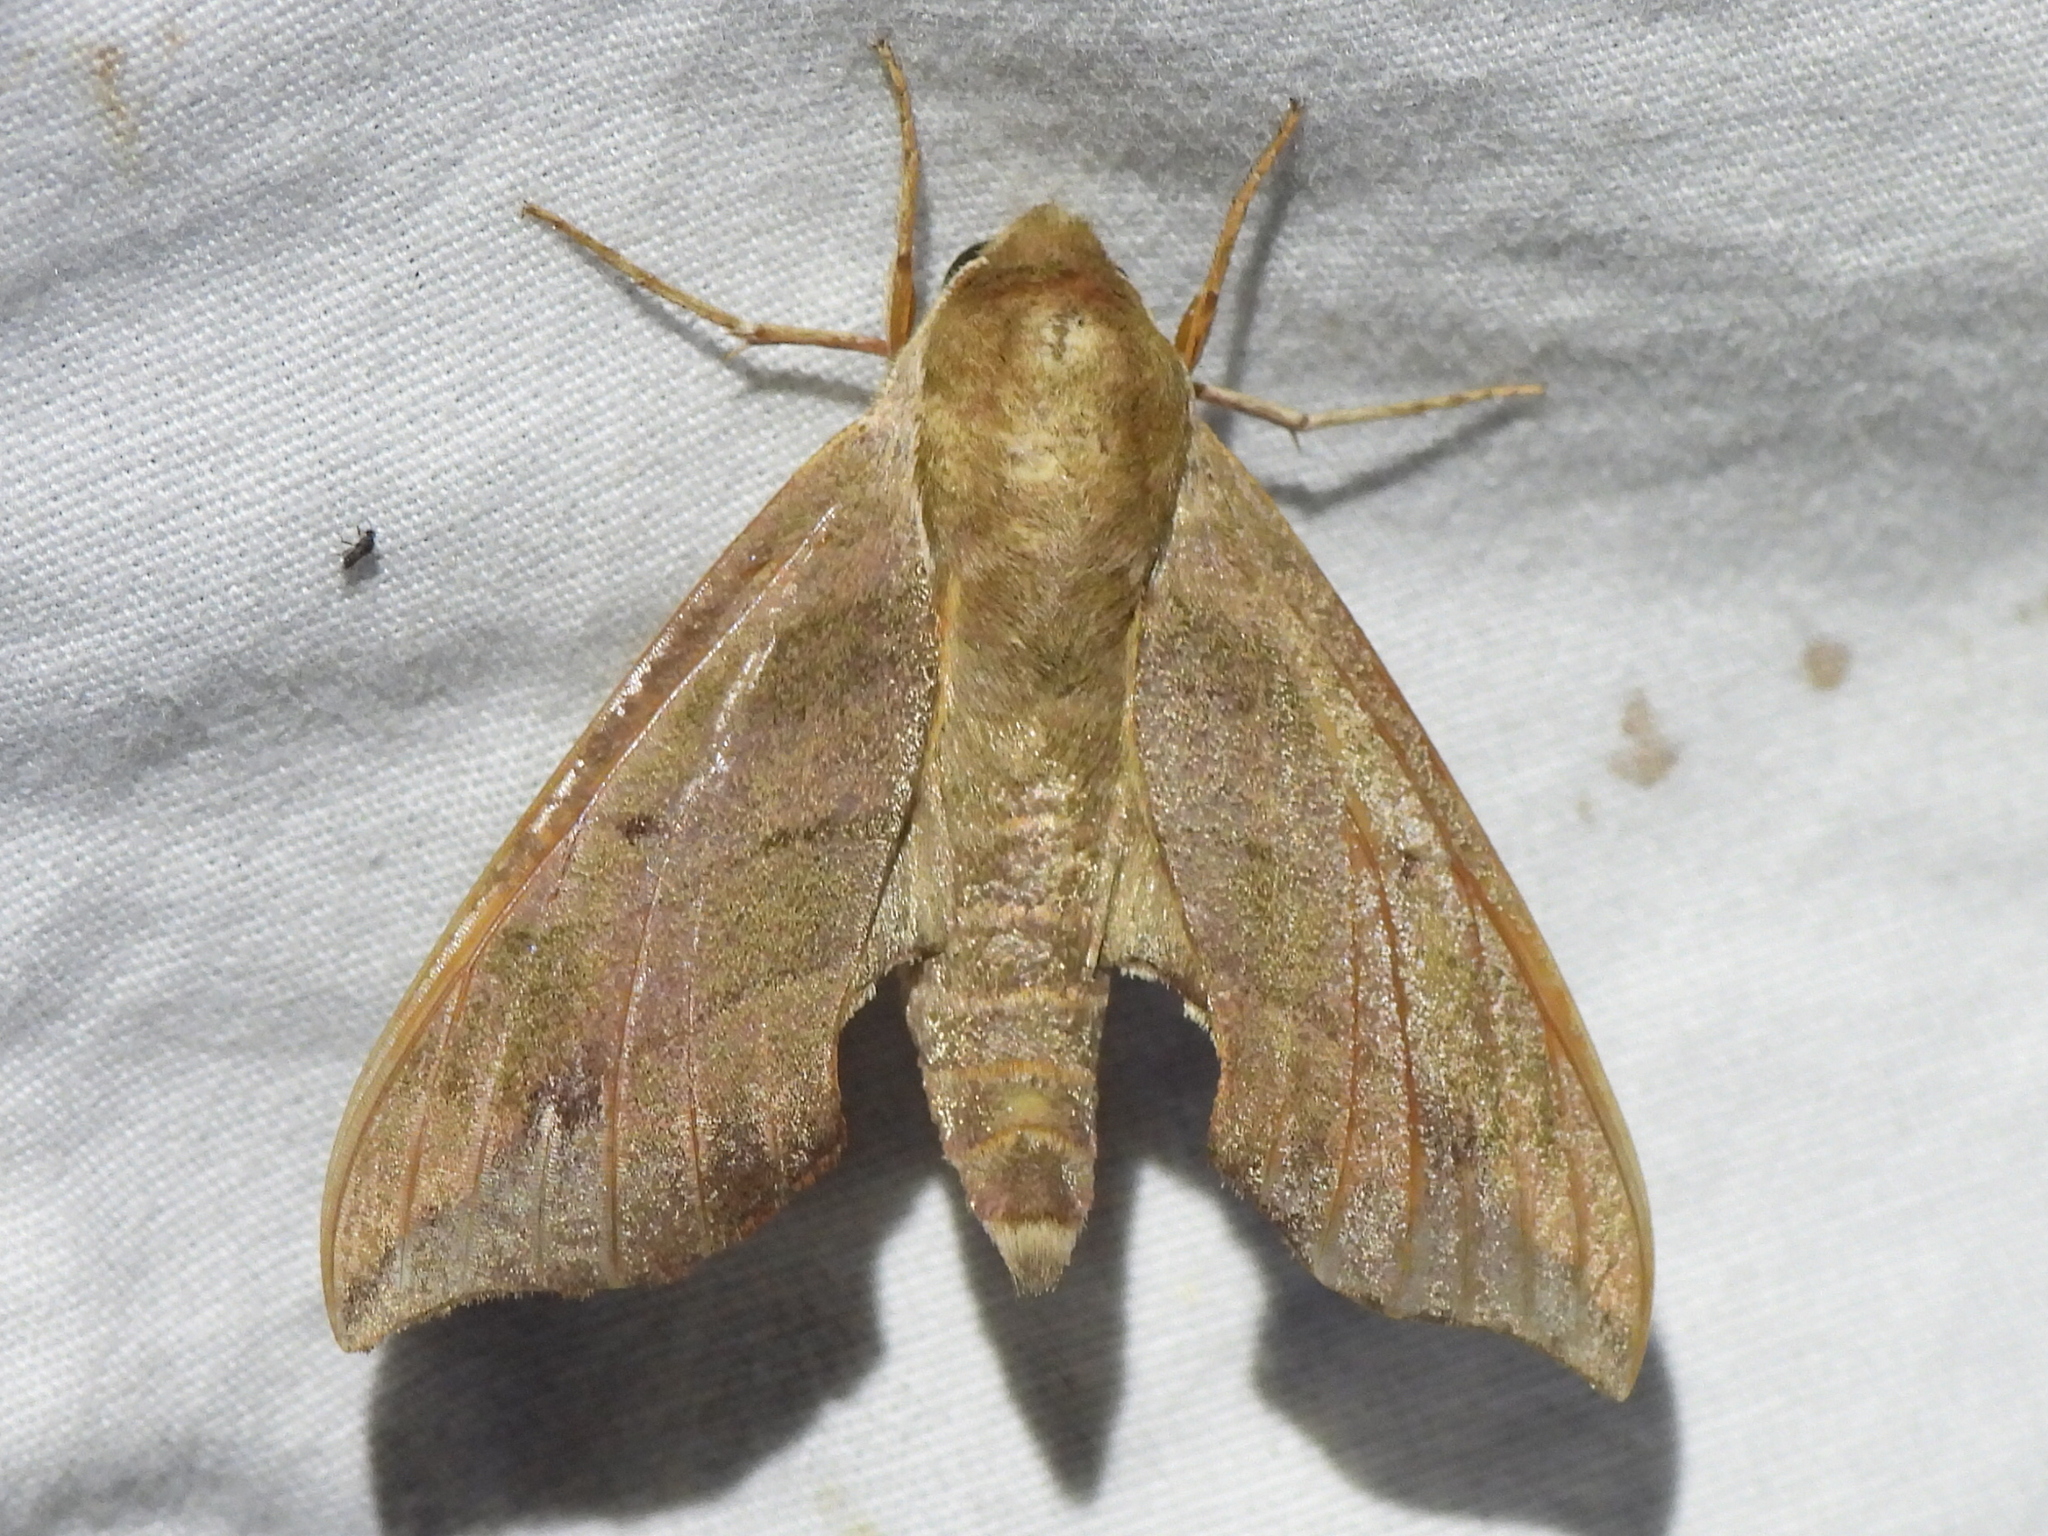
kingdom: Animalia
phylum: Arthropoda
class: Insecta
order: Lepidoptera
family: Sphingidae
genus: Darapsa
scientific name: Darapsa myron
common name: Hog sphinx
